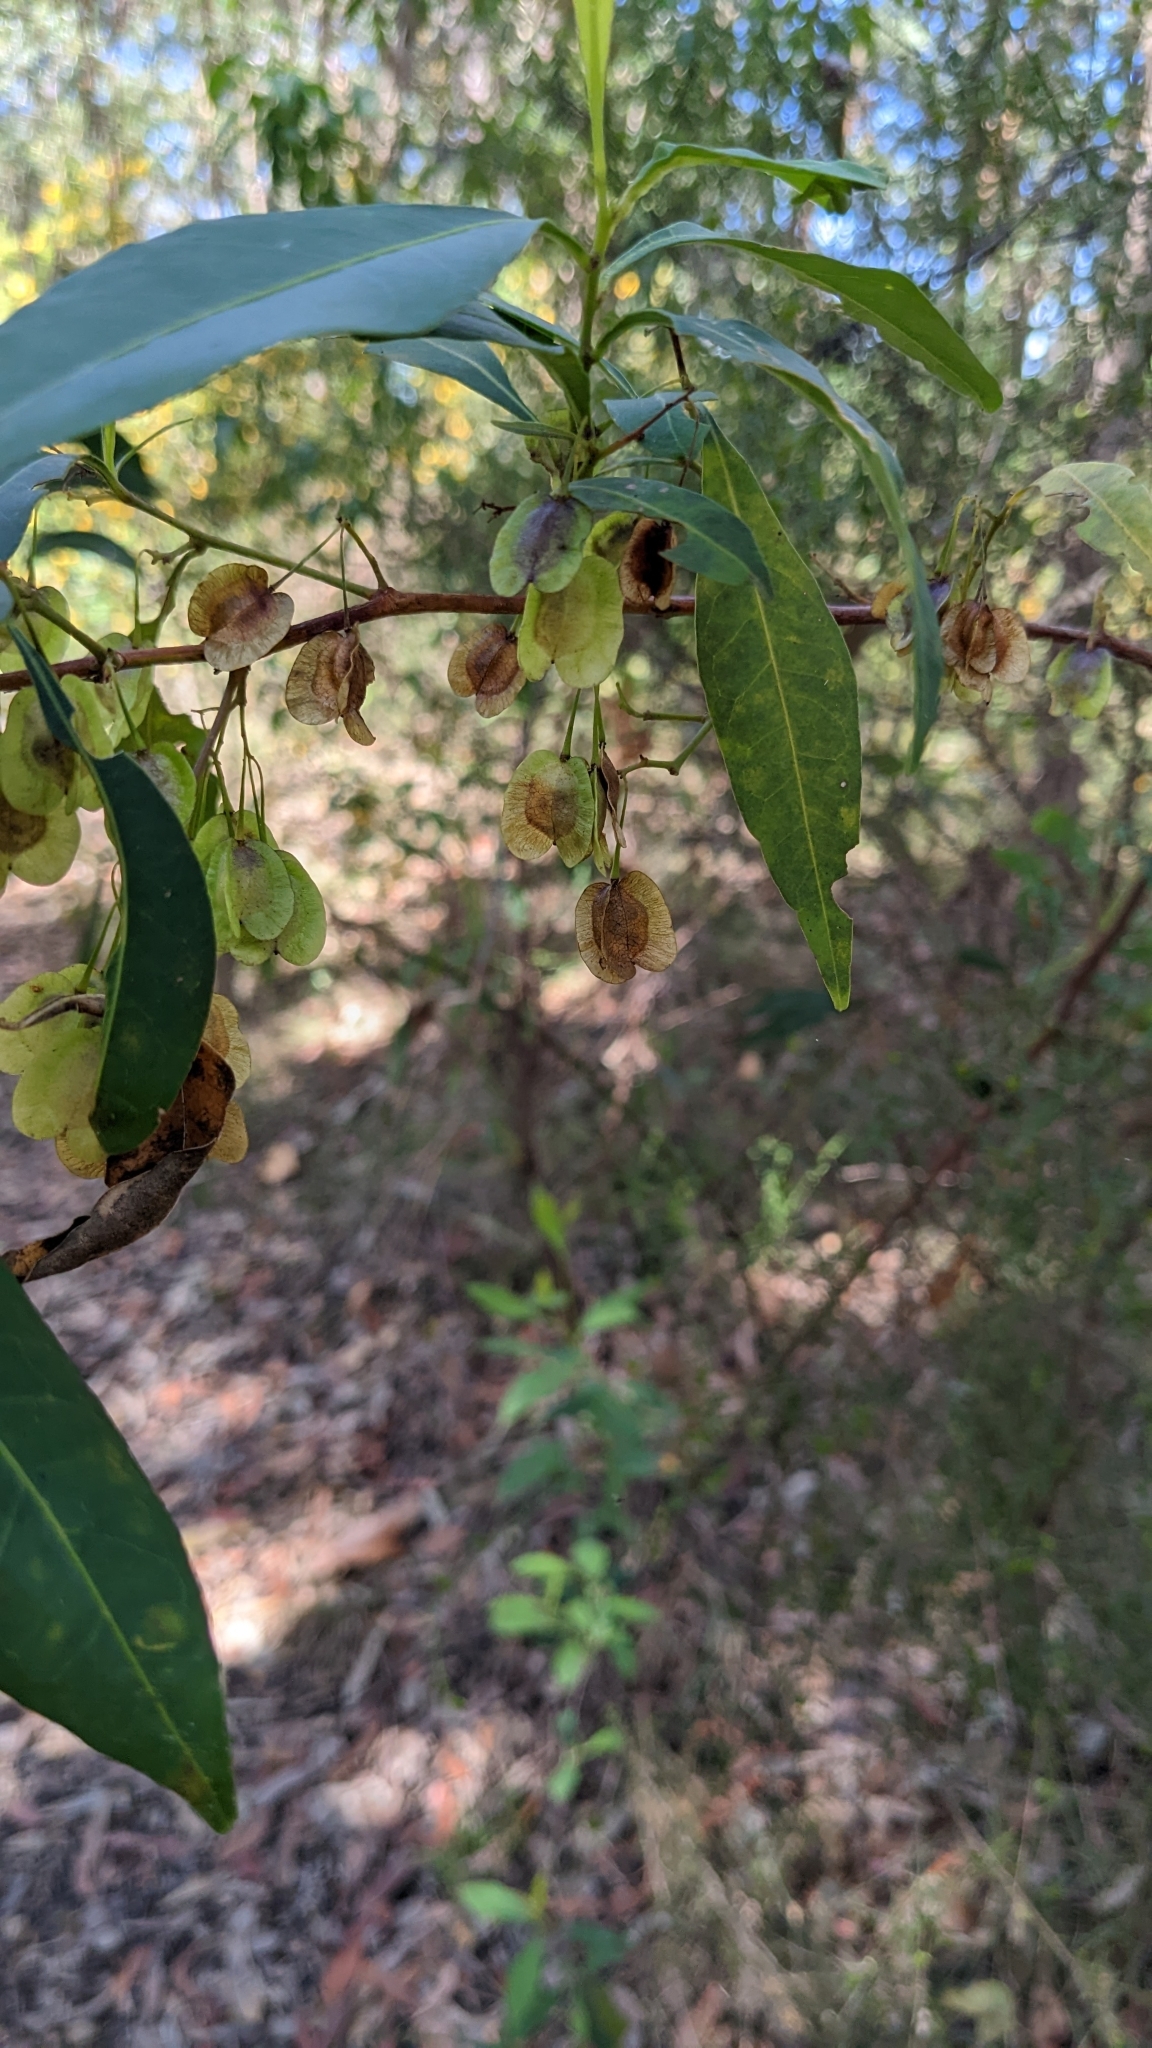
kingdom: Plantae
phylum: Tracheophyta
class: Magnoliopsida
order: Sapindales
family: Sapindaceae
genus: Dodonaea
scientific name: Dodonaea triquetra
